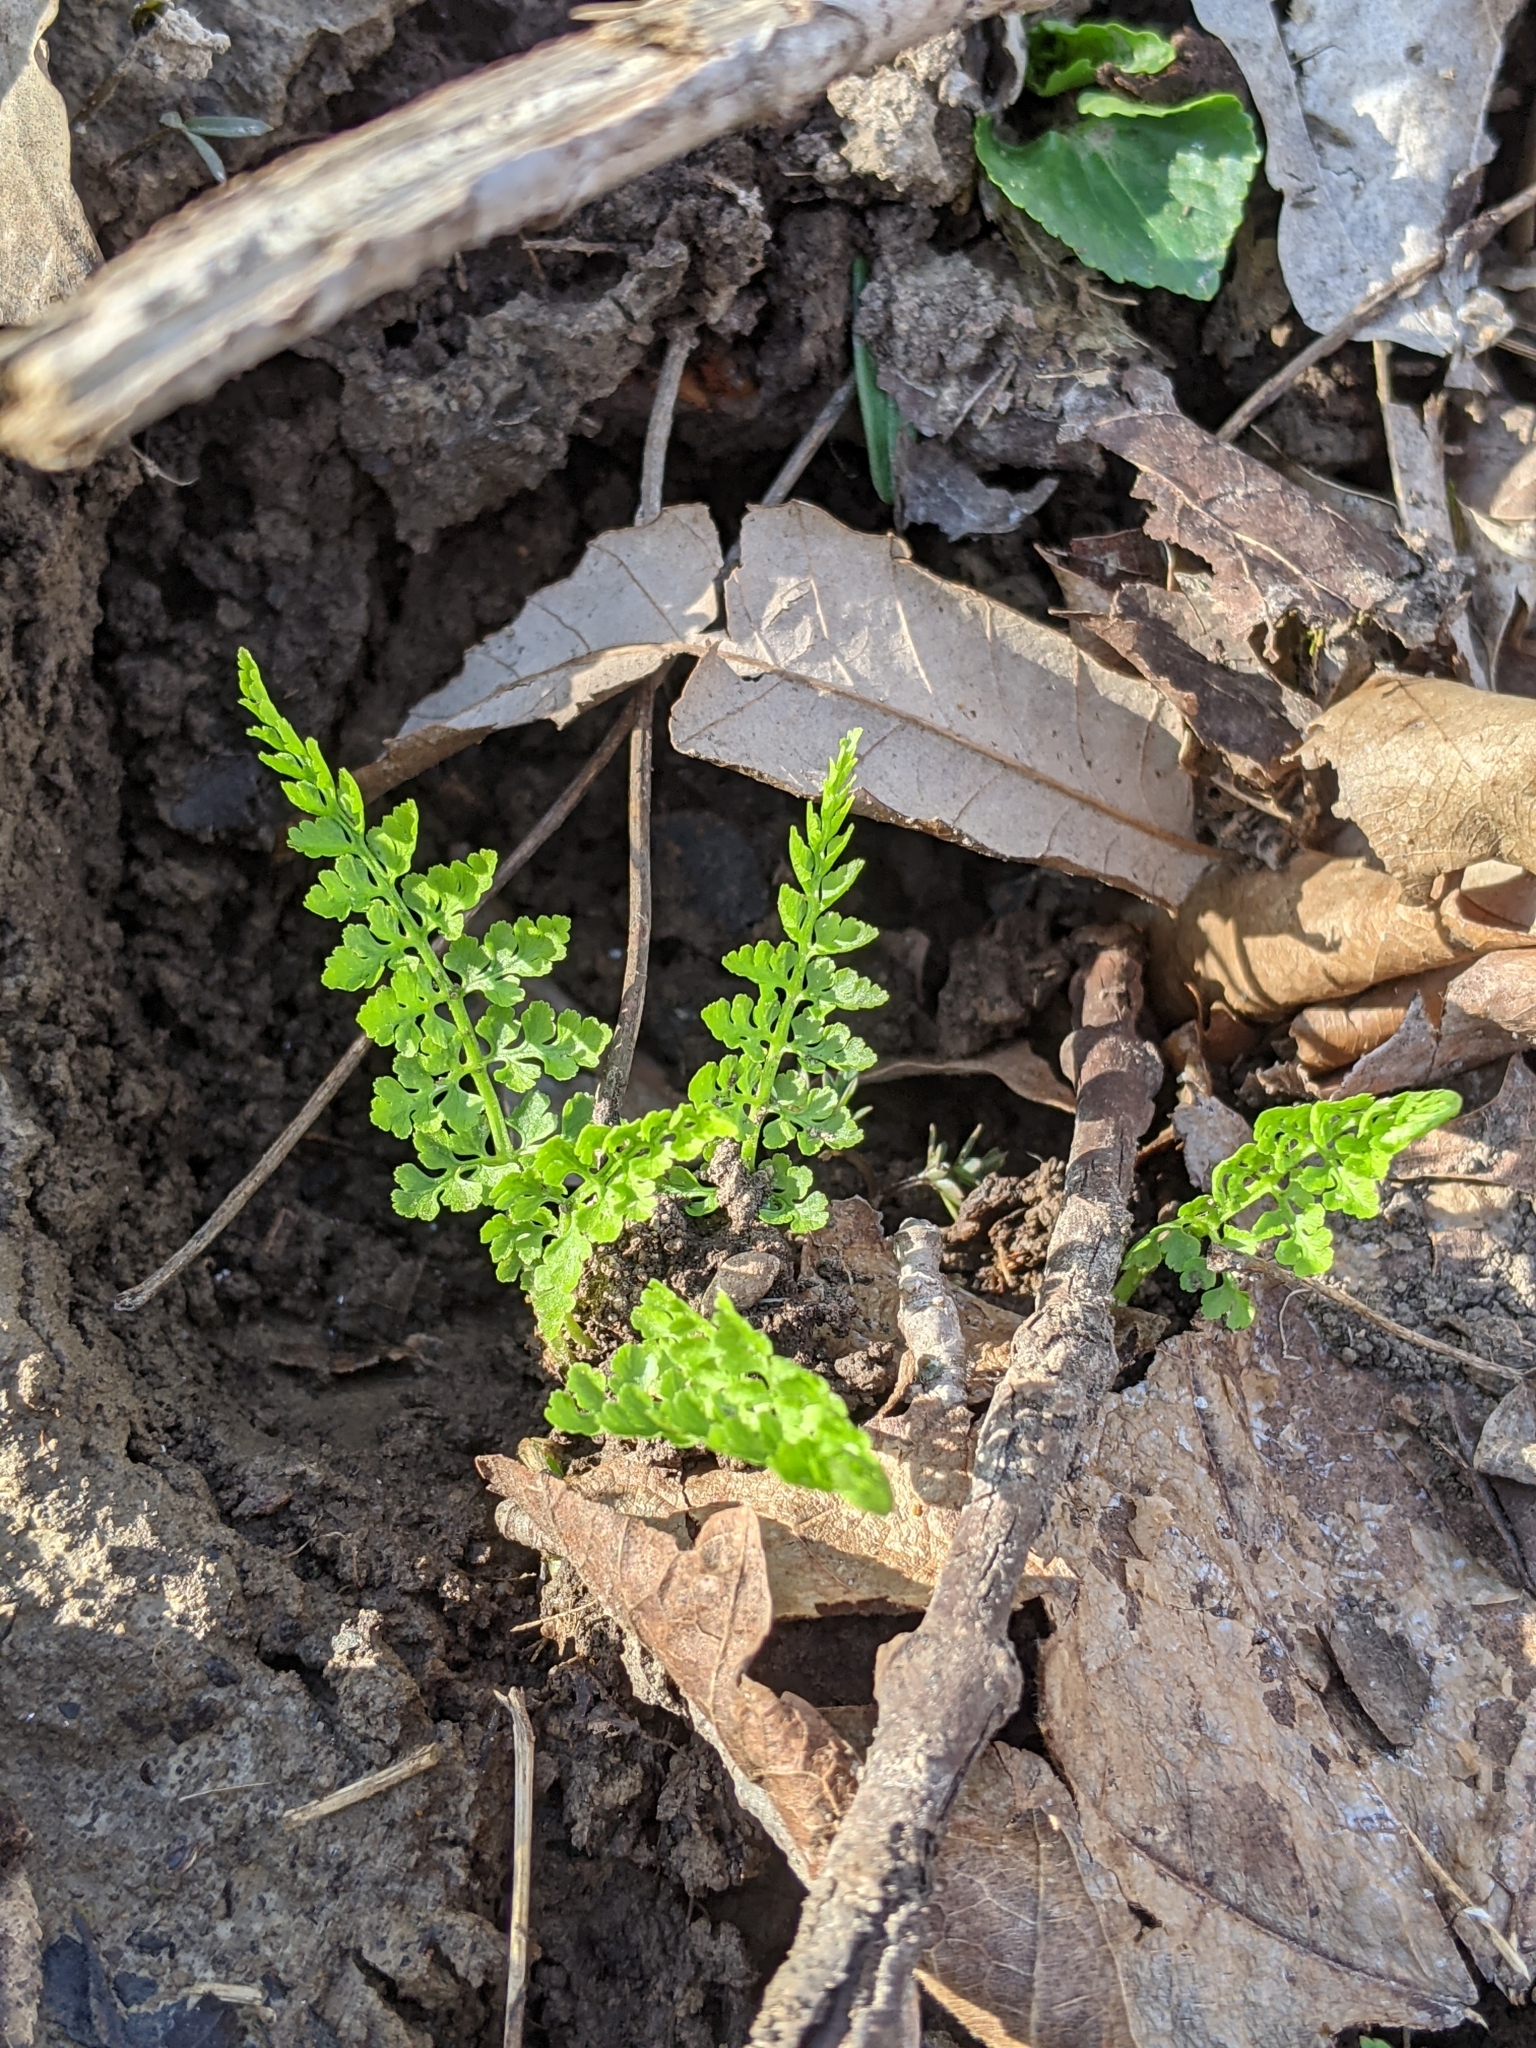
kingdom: Plantae
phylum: Tracheophyta
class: Polypodiopsida
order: Polypodiales
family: Cystopteridaceae
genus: Cystopteris
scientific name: Cystopteris protrusa
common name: Lowland brittle fern
